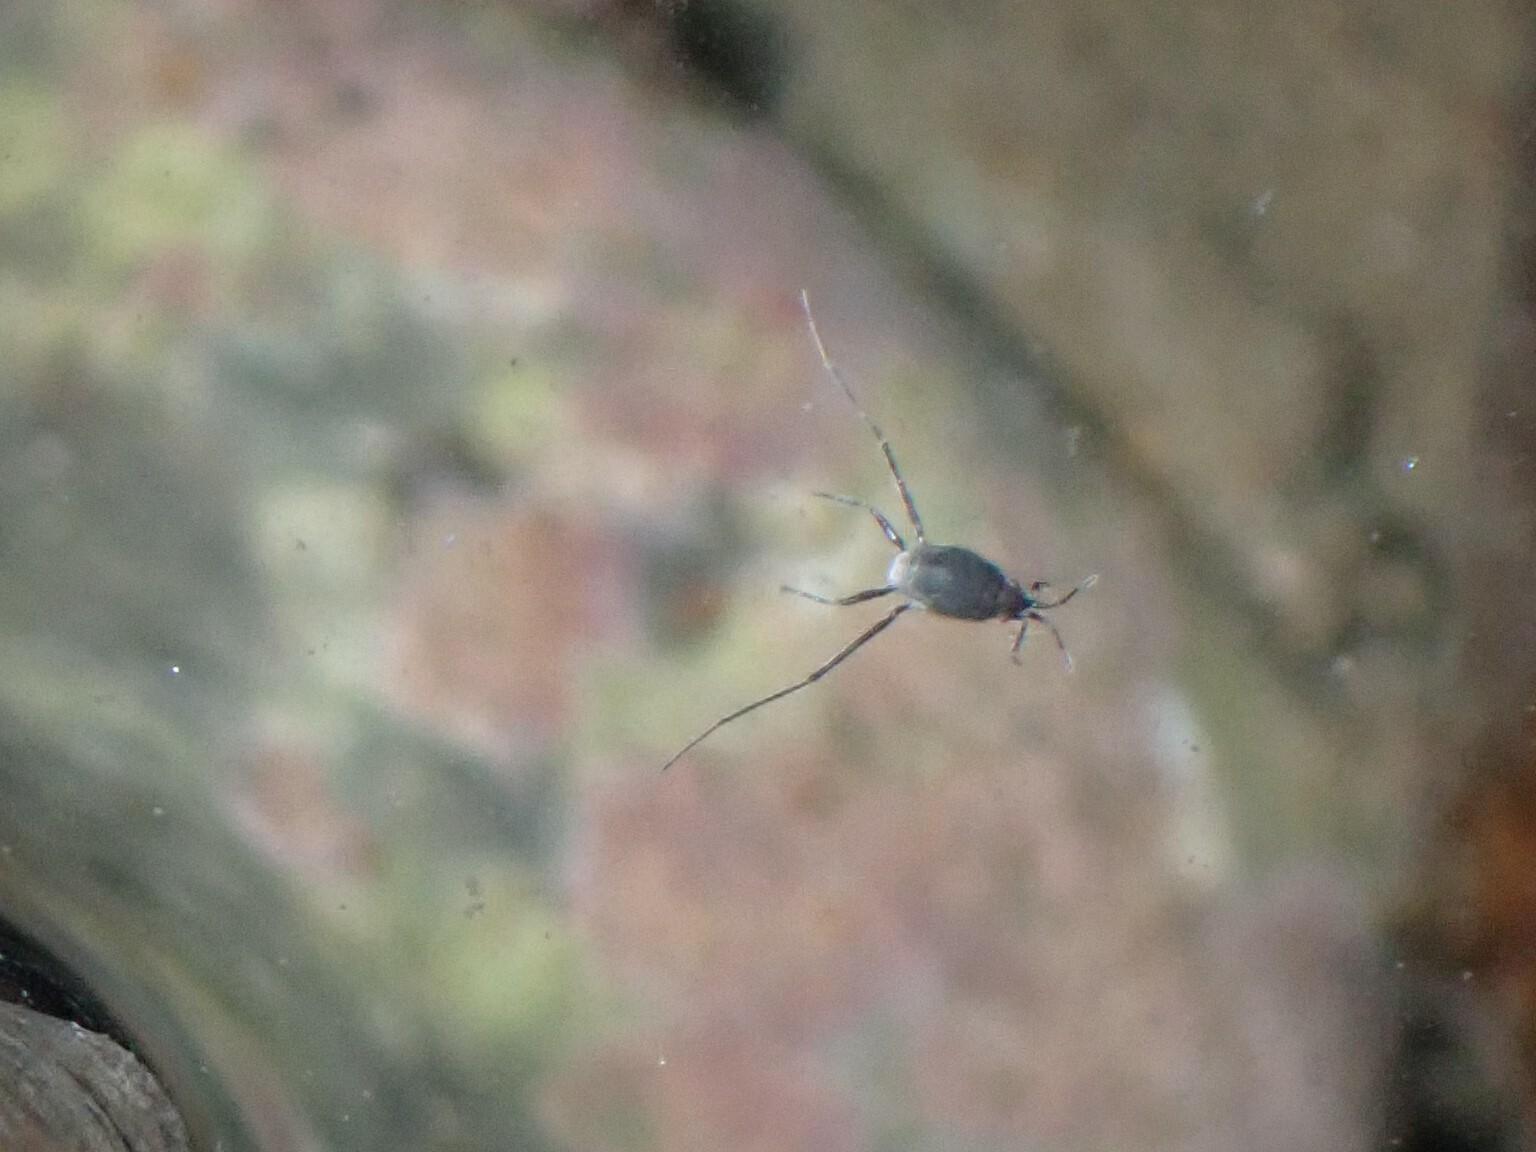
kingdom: Animalia
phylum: Arthropoda
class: Insecta
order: Hemiptera
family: Gerridae
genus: Halobates
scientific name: Halobates
